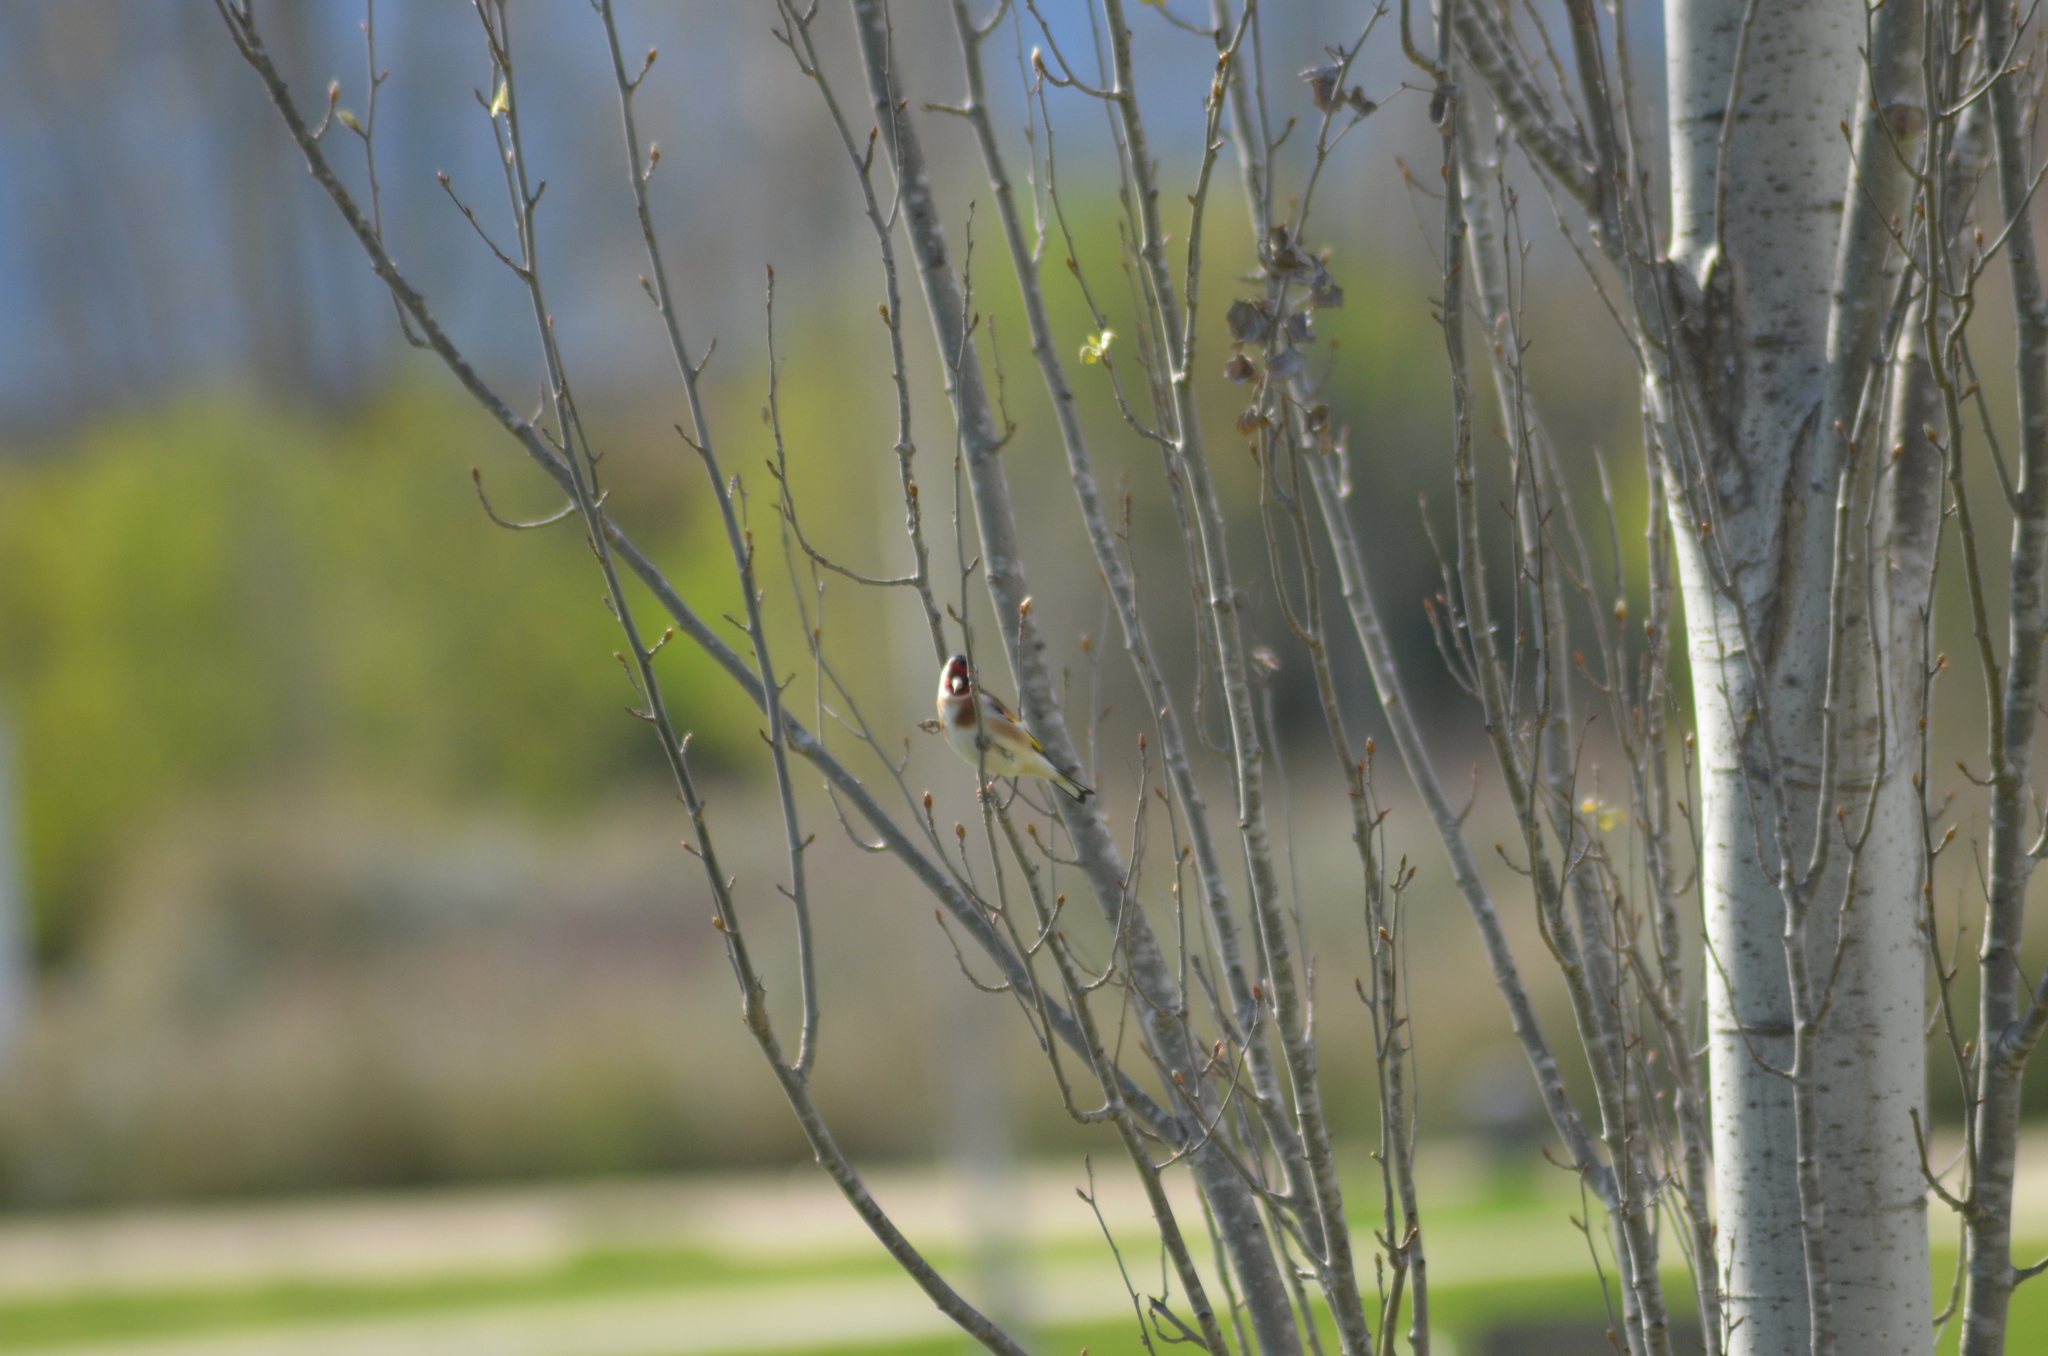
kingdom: Animalia
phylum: Chordata
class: Aves
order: Passeriformes
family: Fringillidae
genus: Carduelis
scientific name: Carduelis carduelis
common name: European goldfinch
